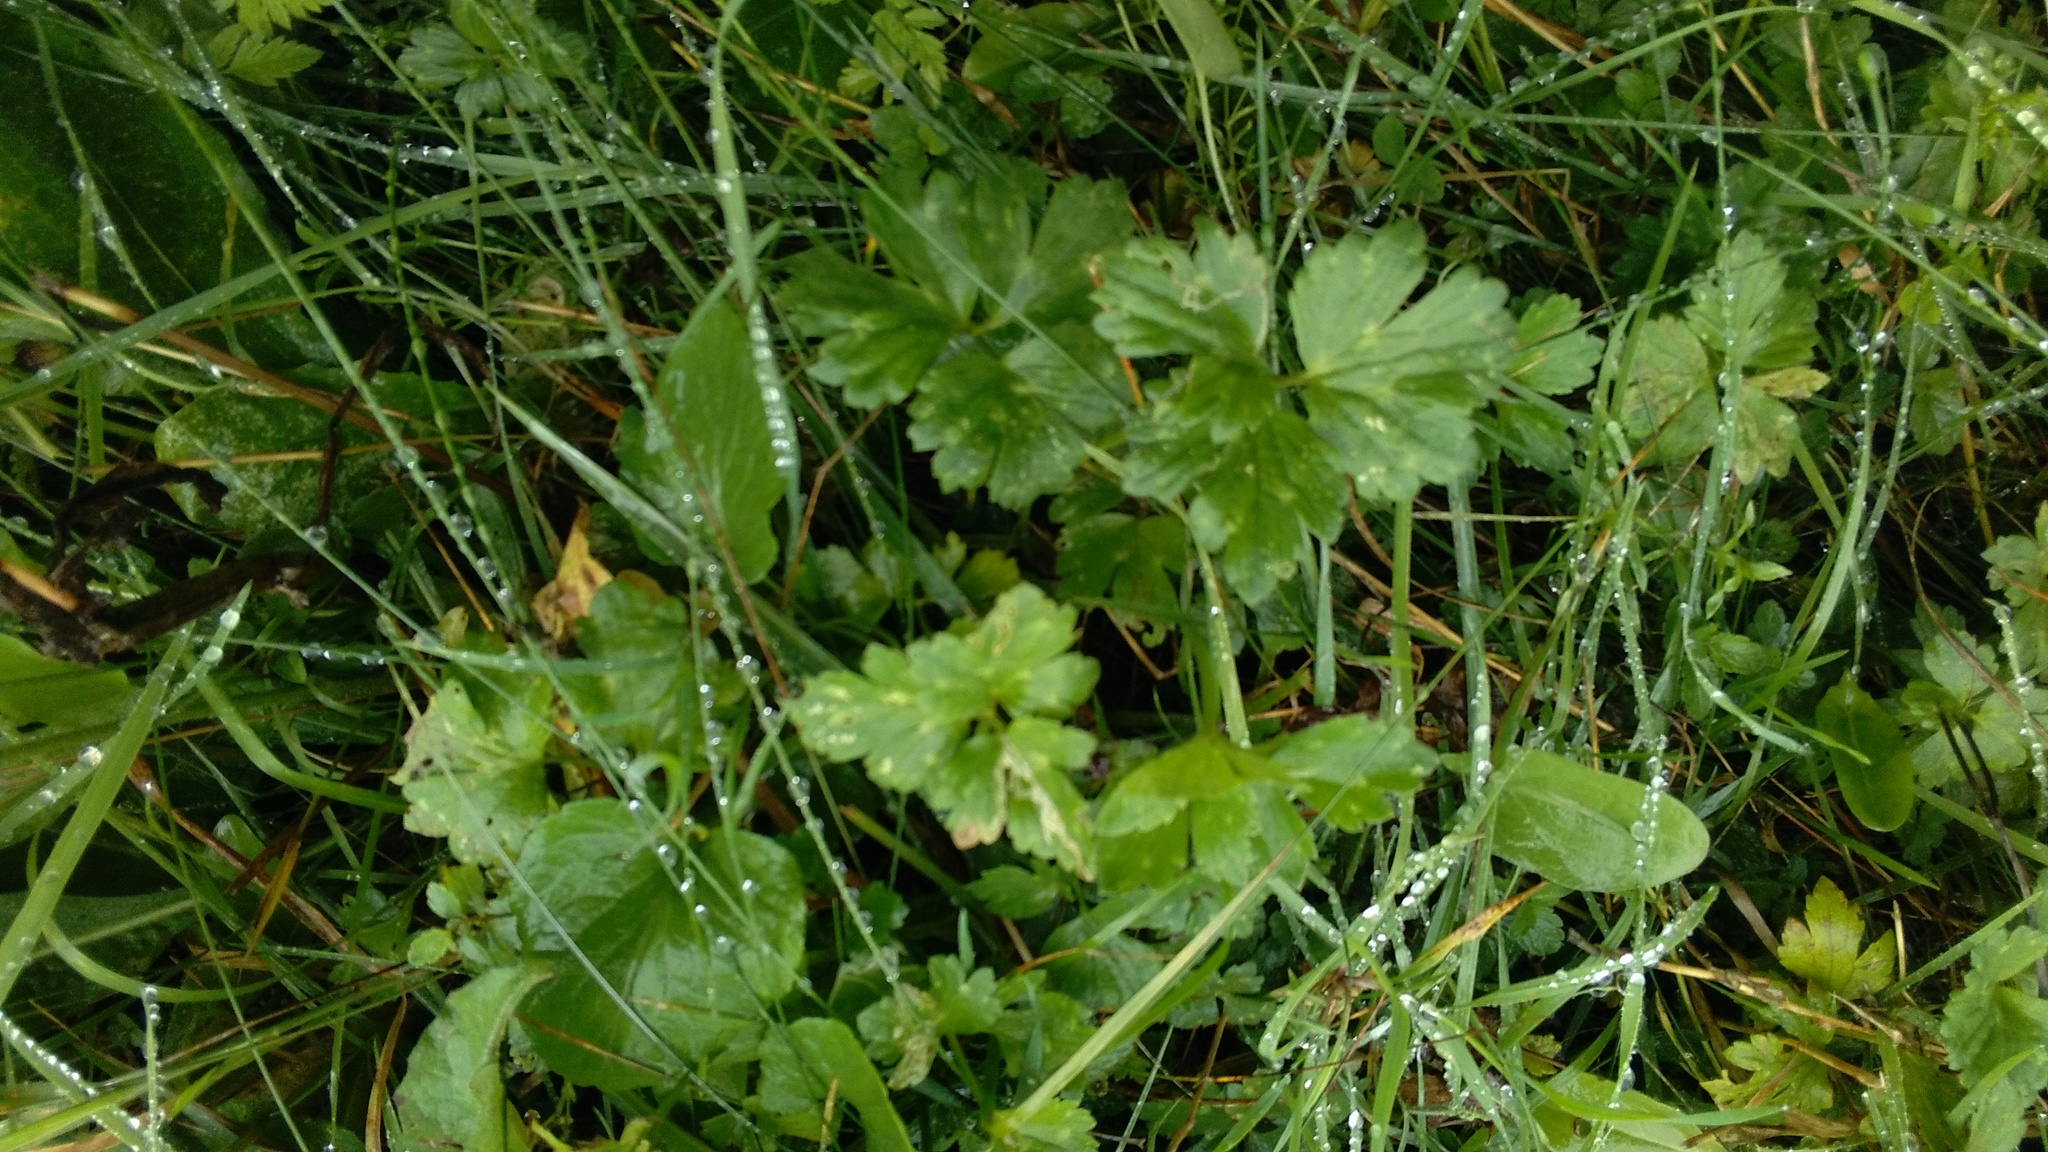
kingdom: Plantae
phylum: Tracheophyta
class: Magnoliopsida
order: Ranunculales
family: Ranunculaceae
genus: Ranunculus
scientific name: Ranunculus repens
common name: Creeping buttercup
